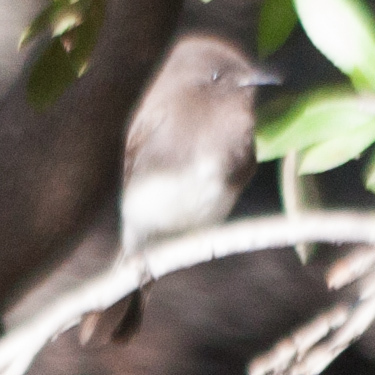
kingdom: Animalia
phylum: Chordata
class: Aves
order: Passeriformes
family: Tyrannidae
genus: Sayornis
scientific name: Sayornis nigricans
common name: Black phoebe
